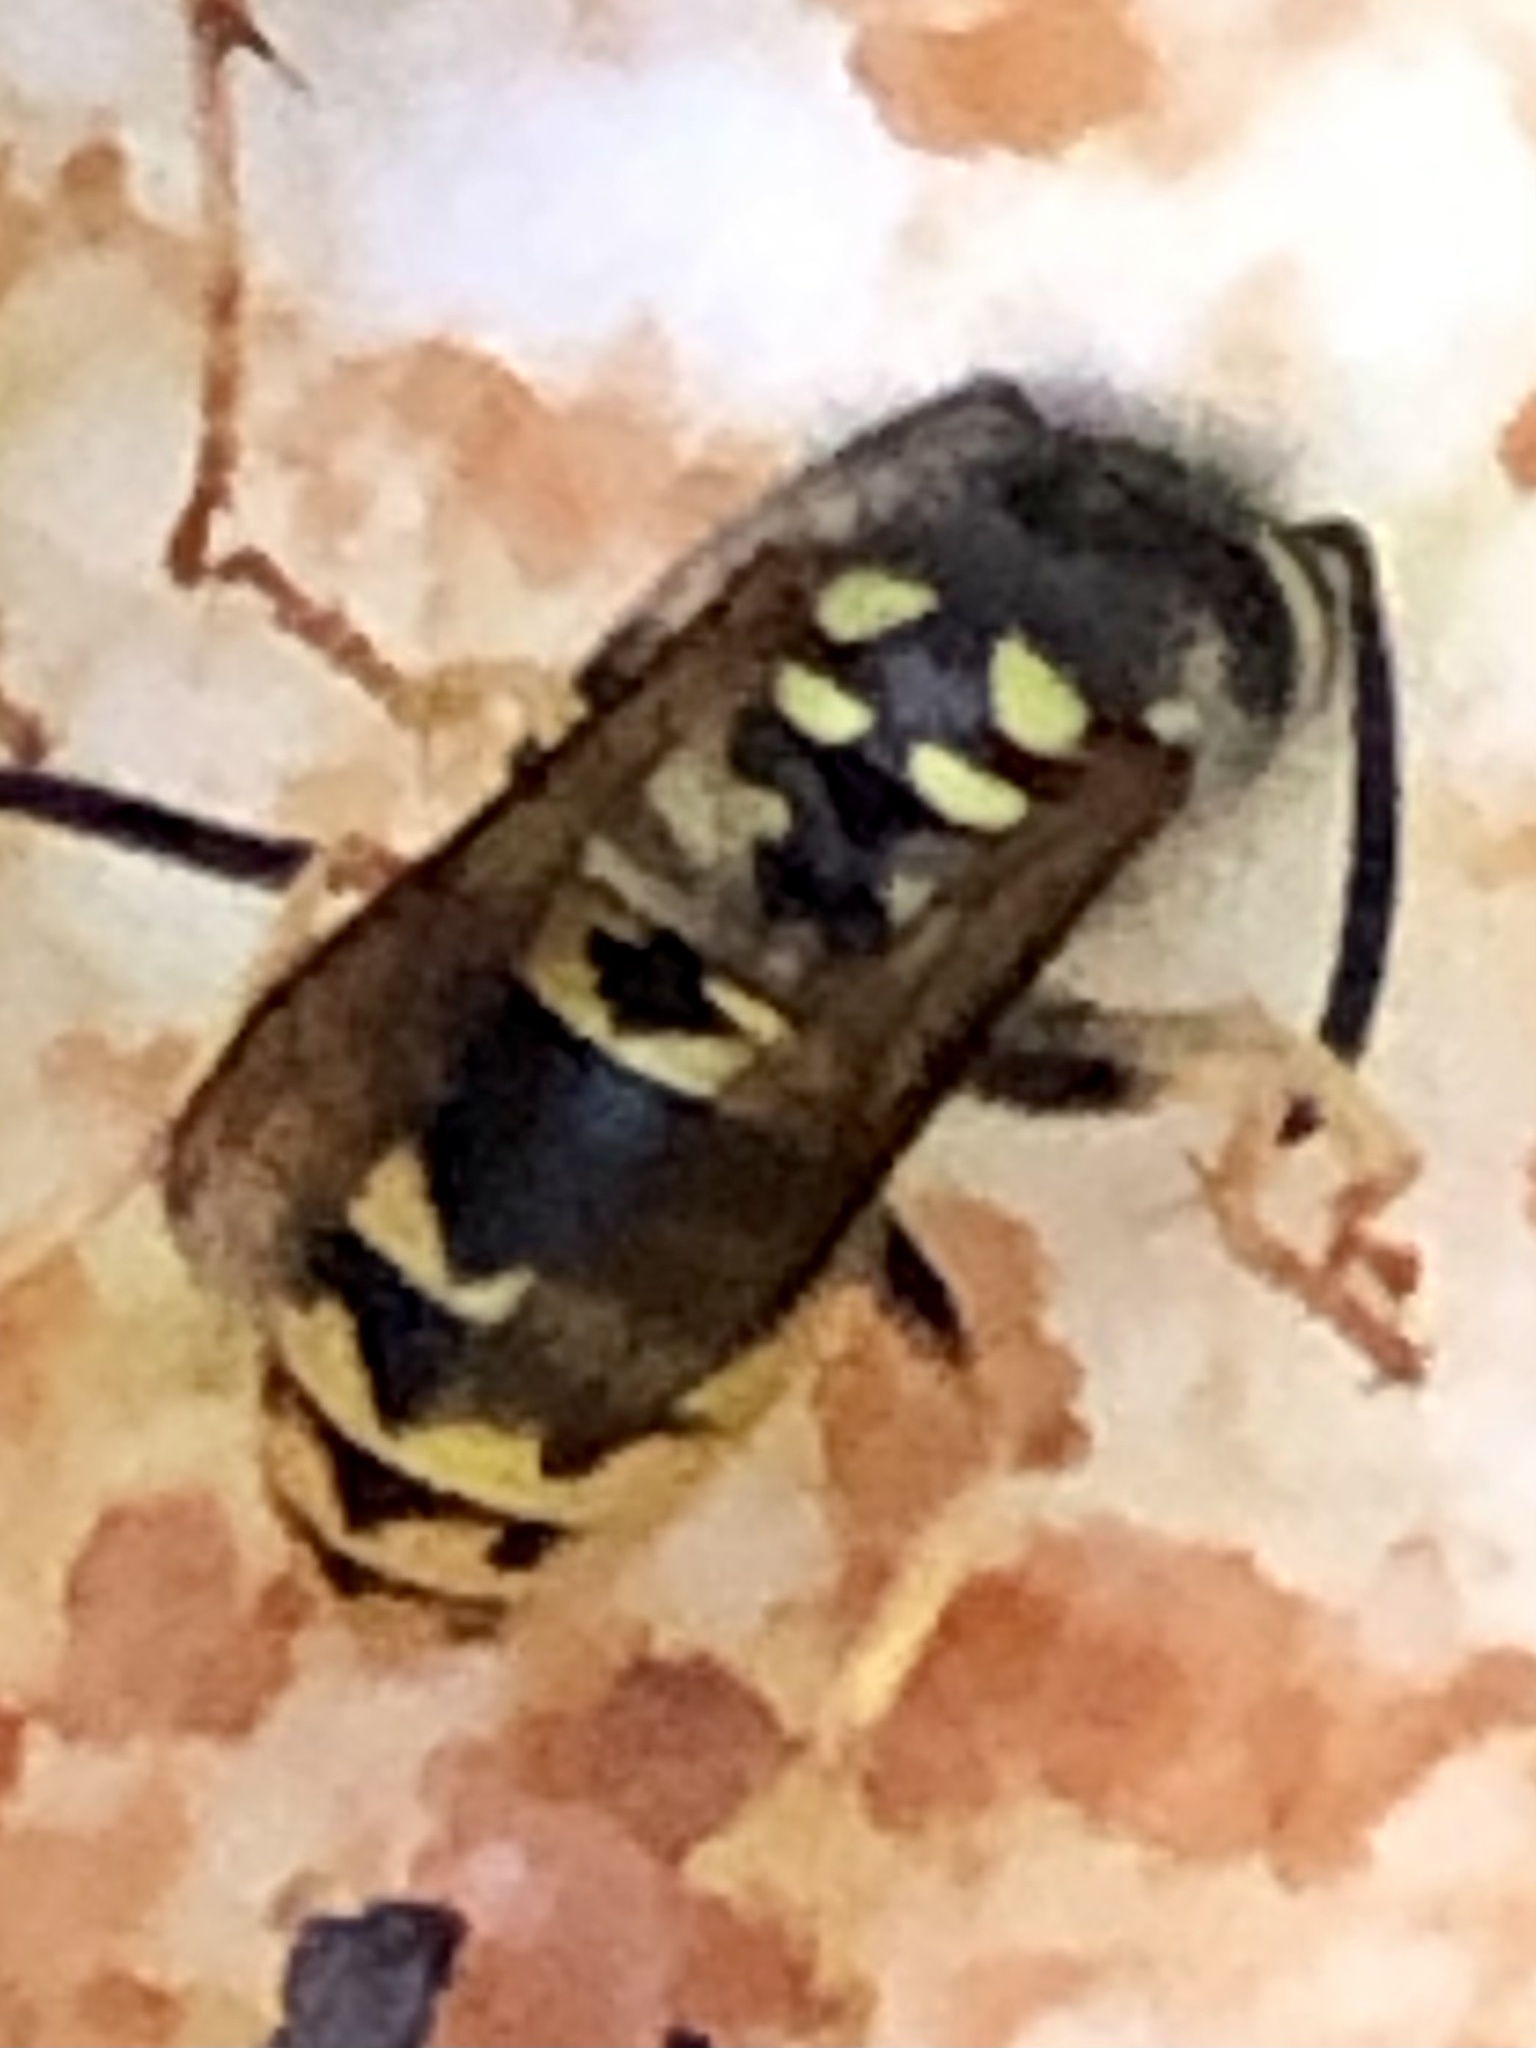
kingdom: Animalia
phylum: Arthropoda
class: Insecta
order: Hymenoptera
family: Vespidae
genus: Vespula
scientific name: Vespula germanica
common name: German wasp
